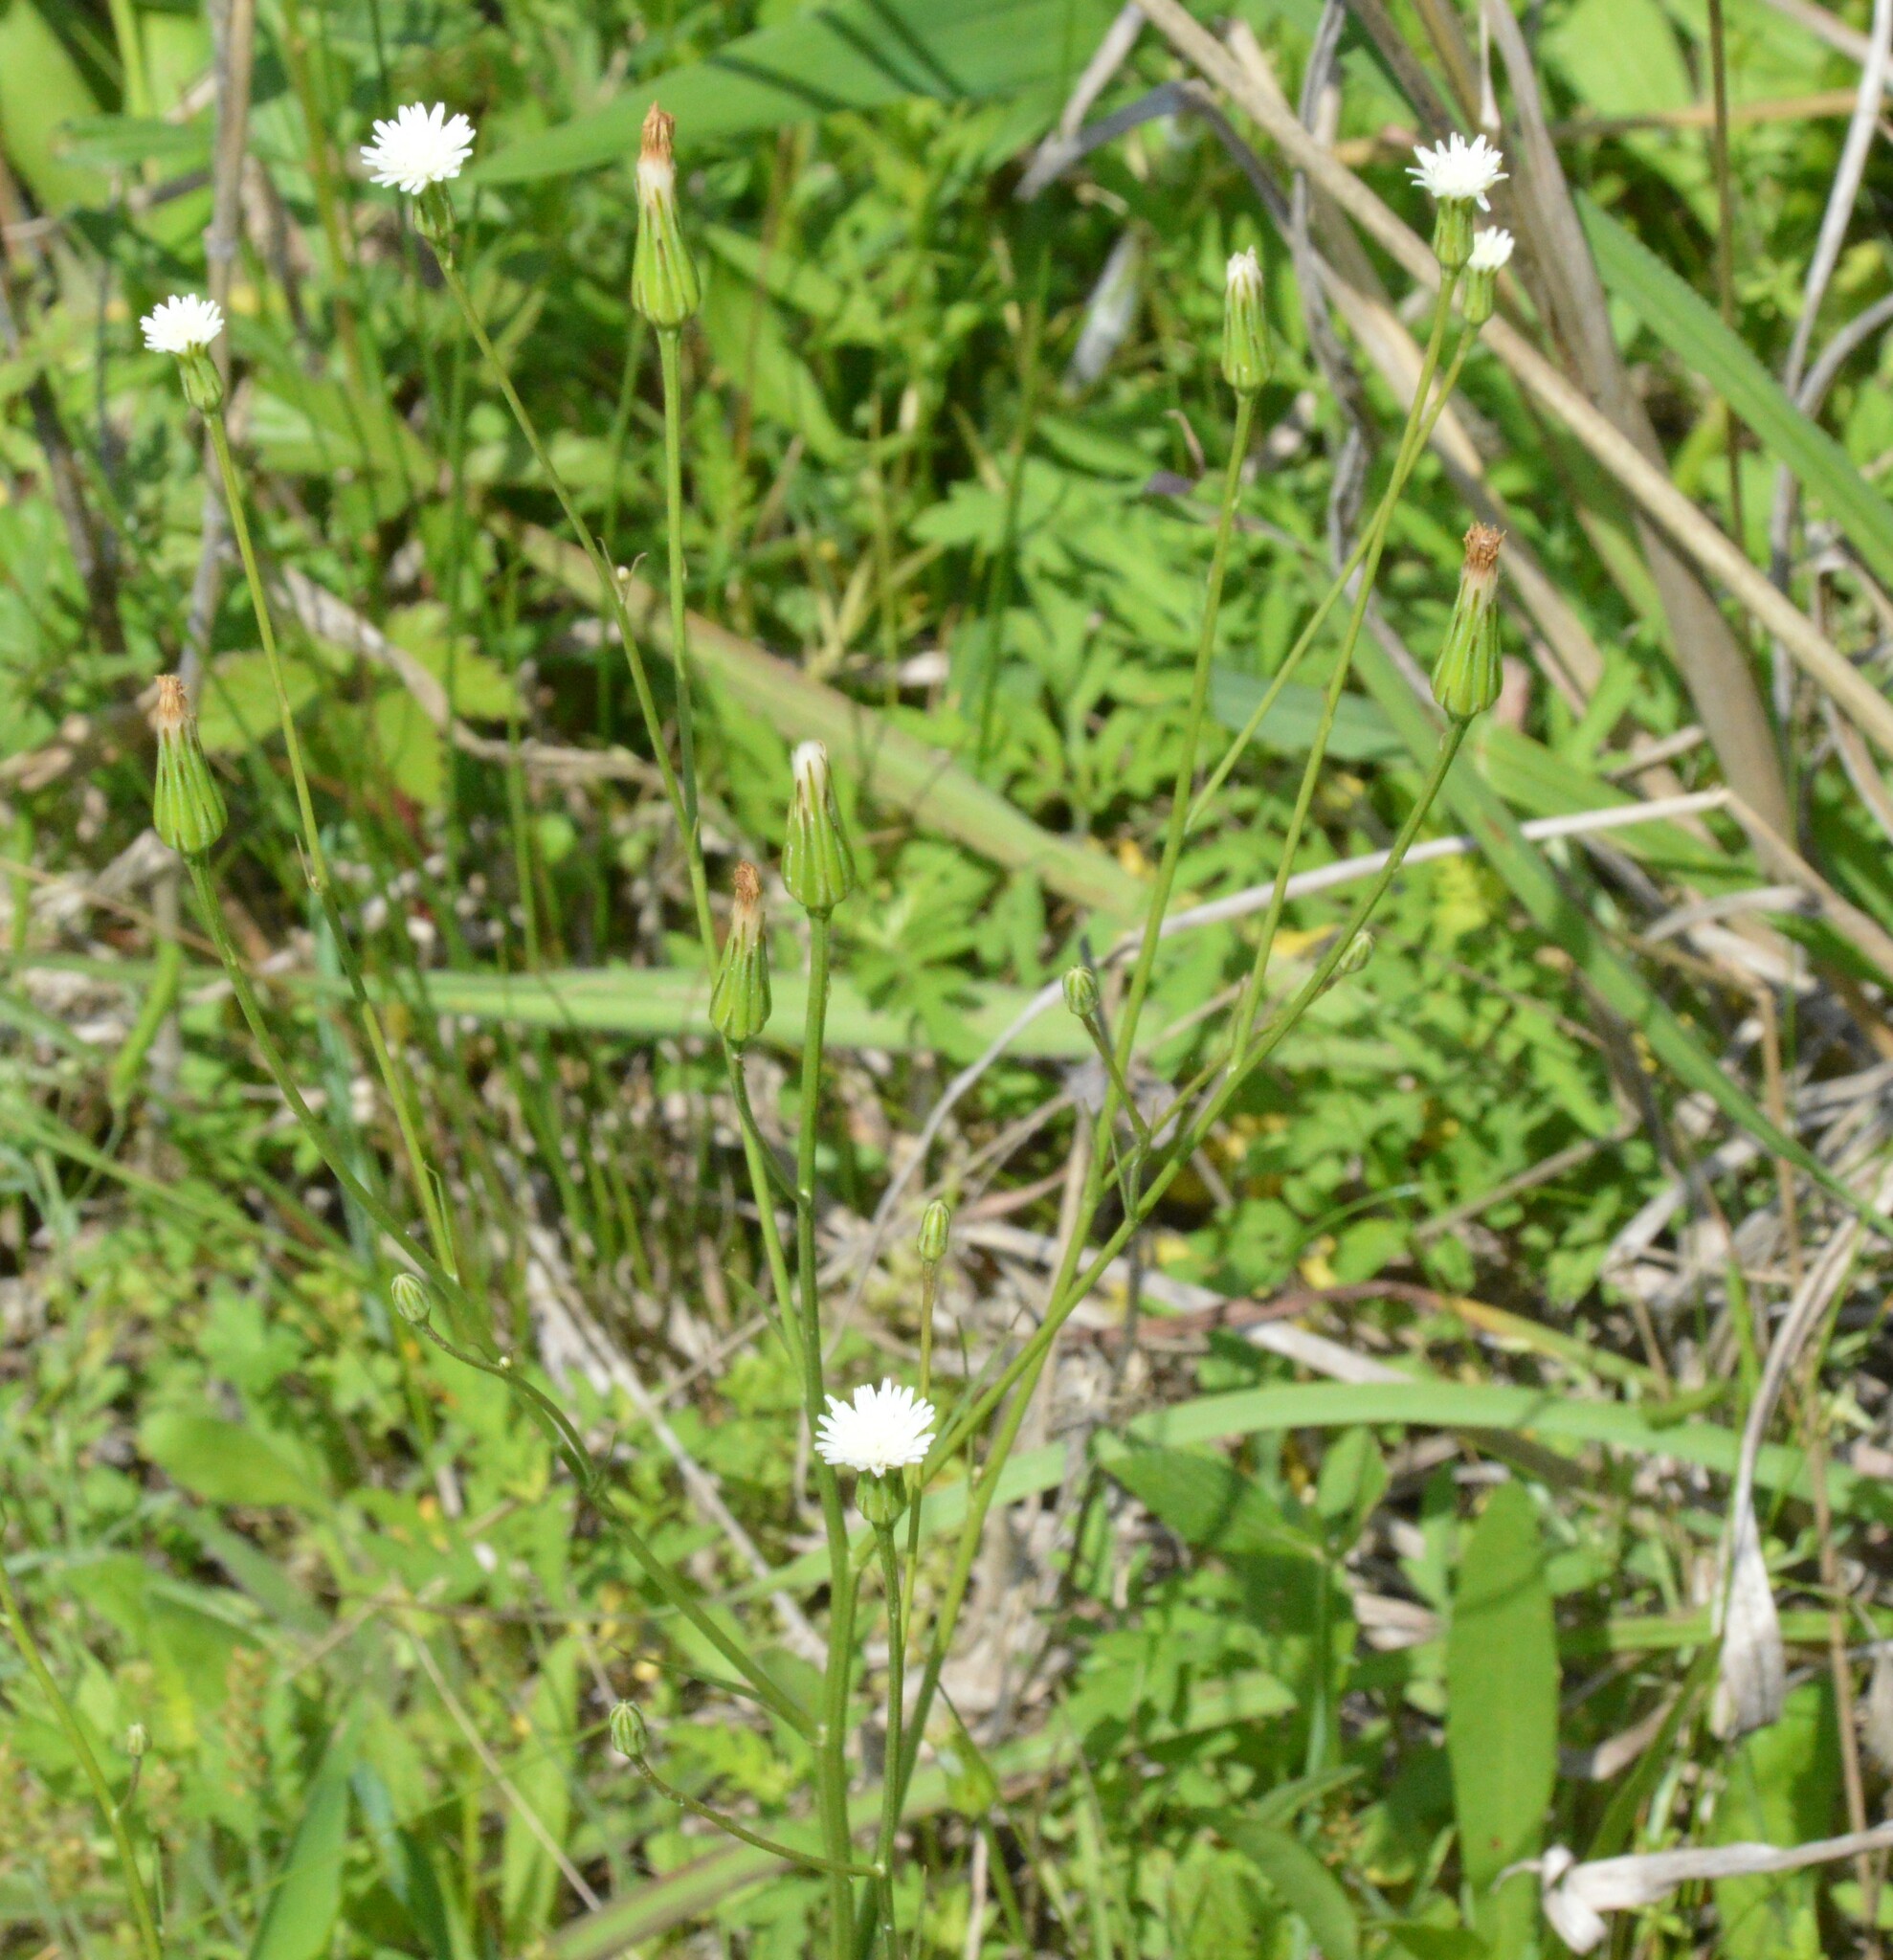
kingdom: Plantae
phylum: Tracheophyta
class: Magnoliopsida
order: Asterales
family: Asteraceae
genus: Hypochaeris
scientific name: Hypochaeris albiflora
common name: White flatweed
